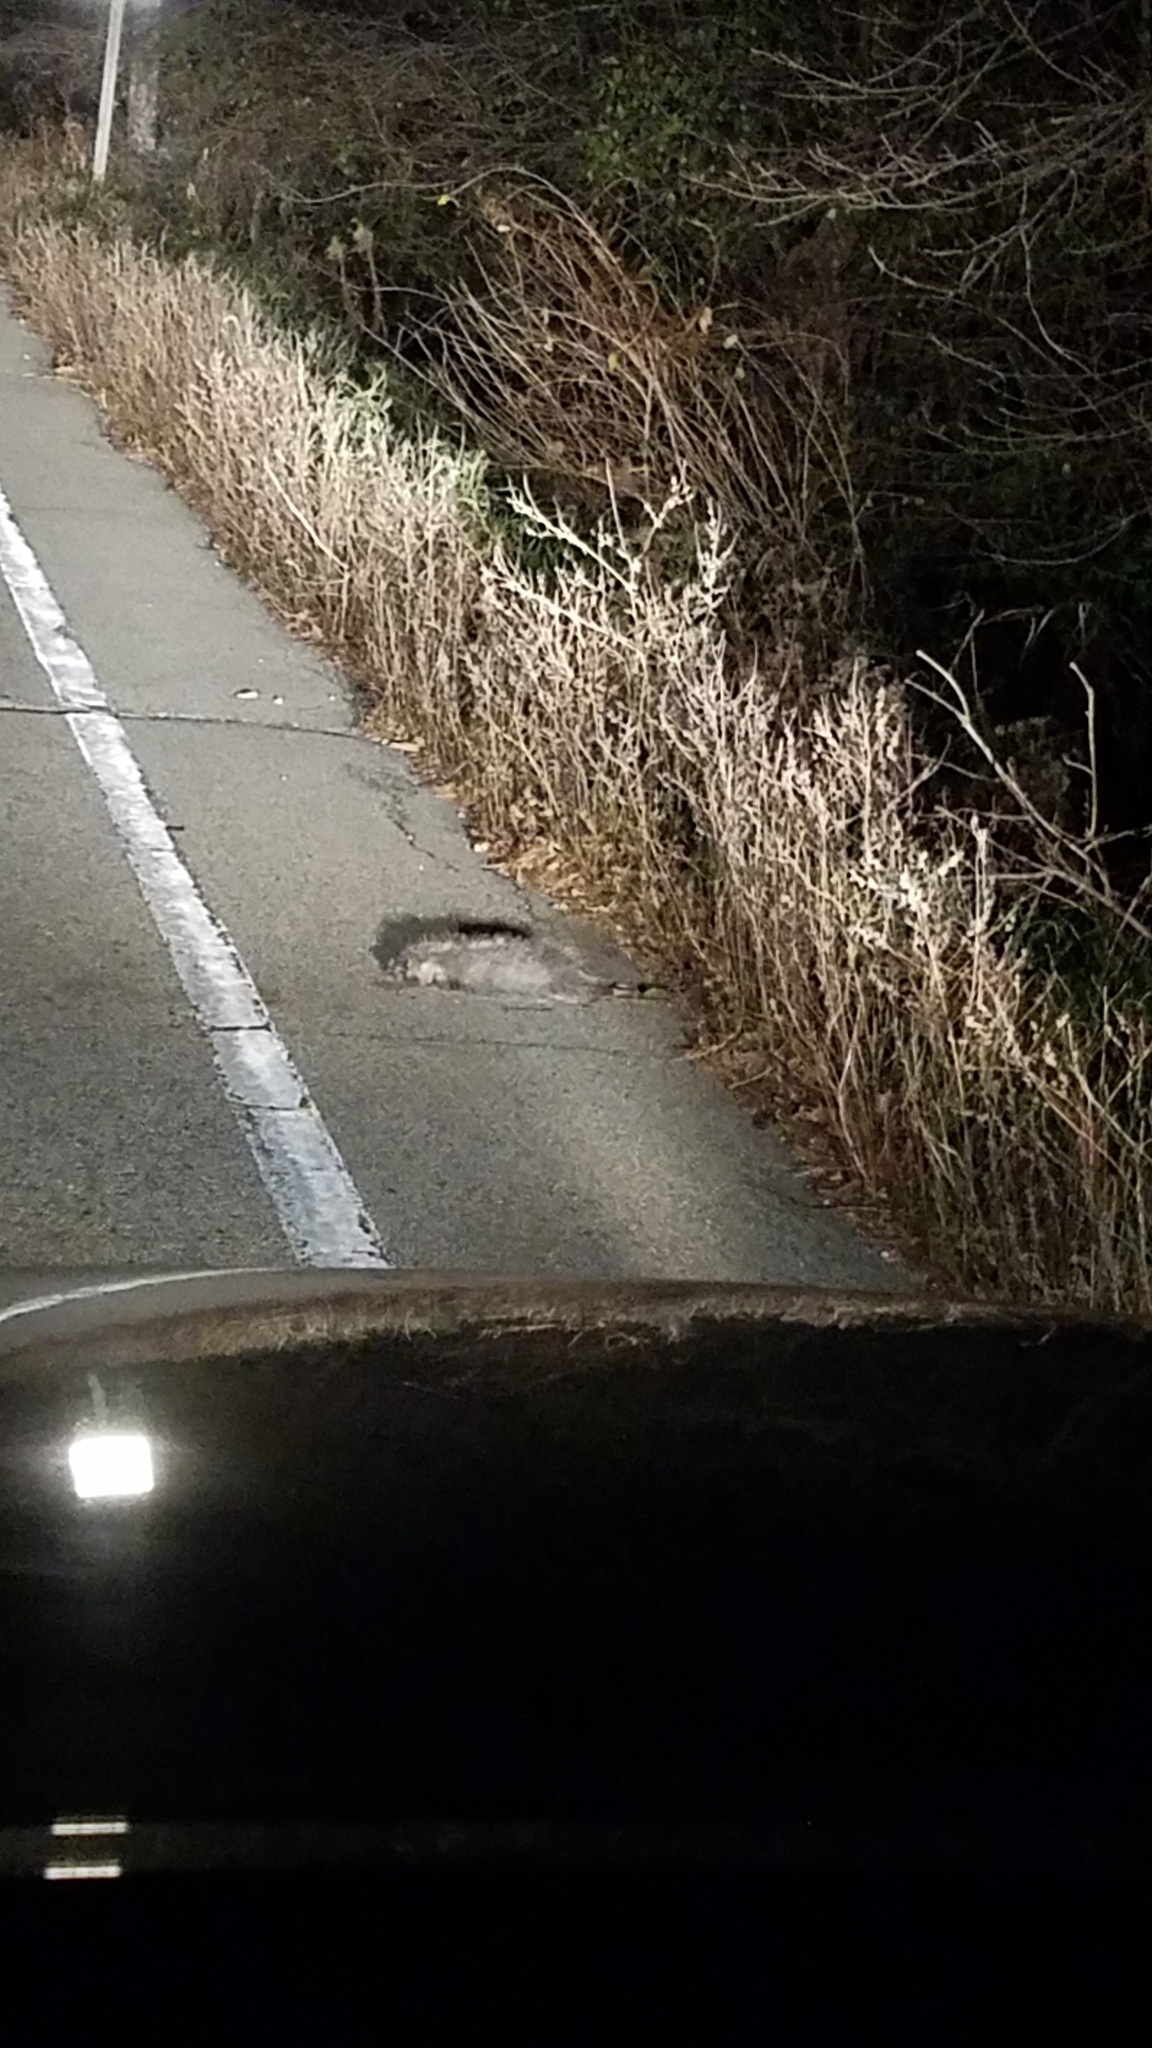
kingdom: Animalia
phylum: Chordata
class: Mammalia
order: Didelphimorphia
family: Didelphidae
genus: Didelphis
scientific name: Didelphis virginiana
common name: Virginia opossum
